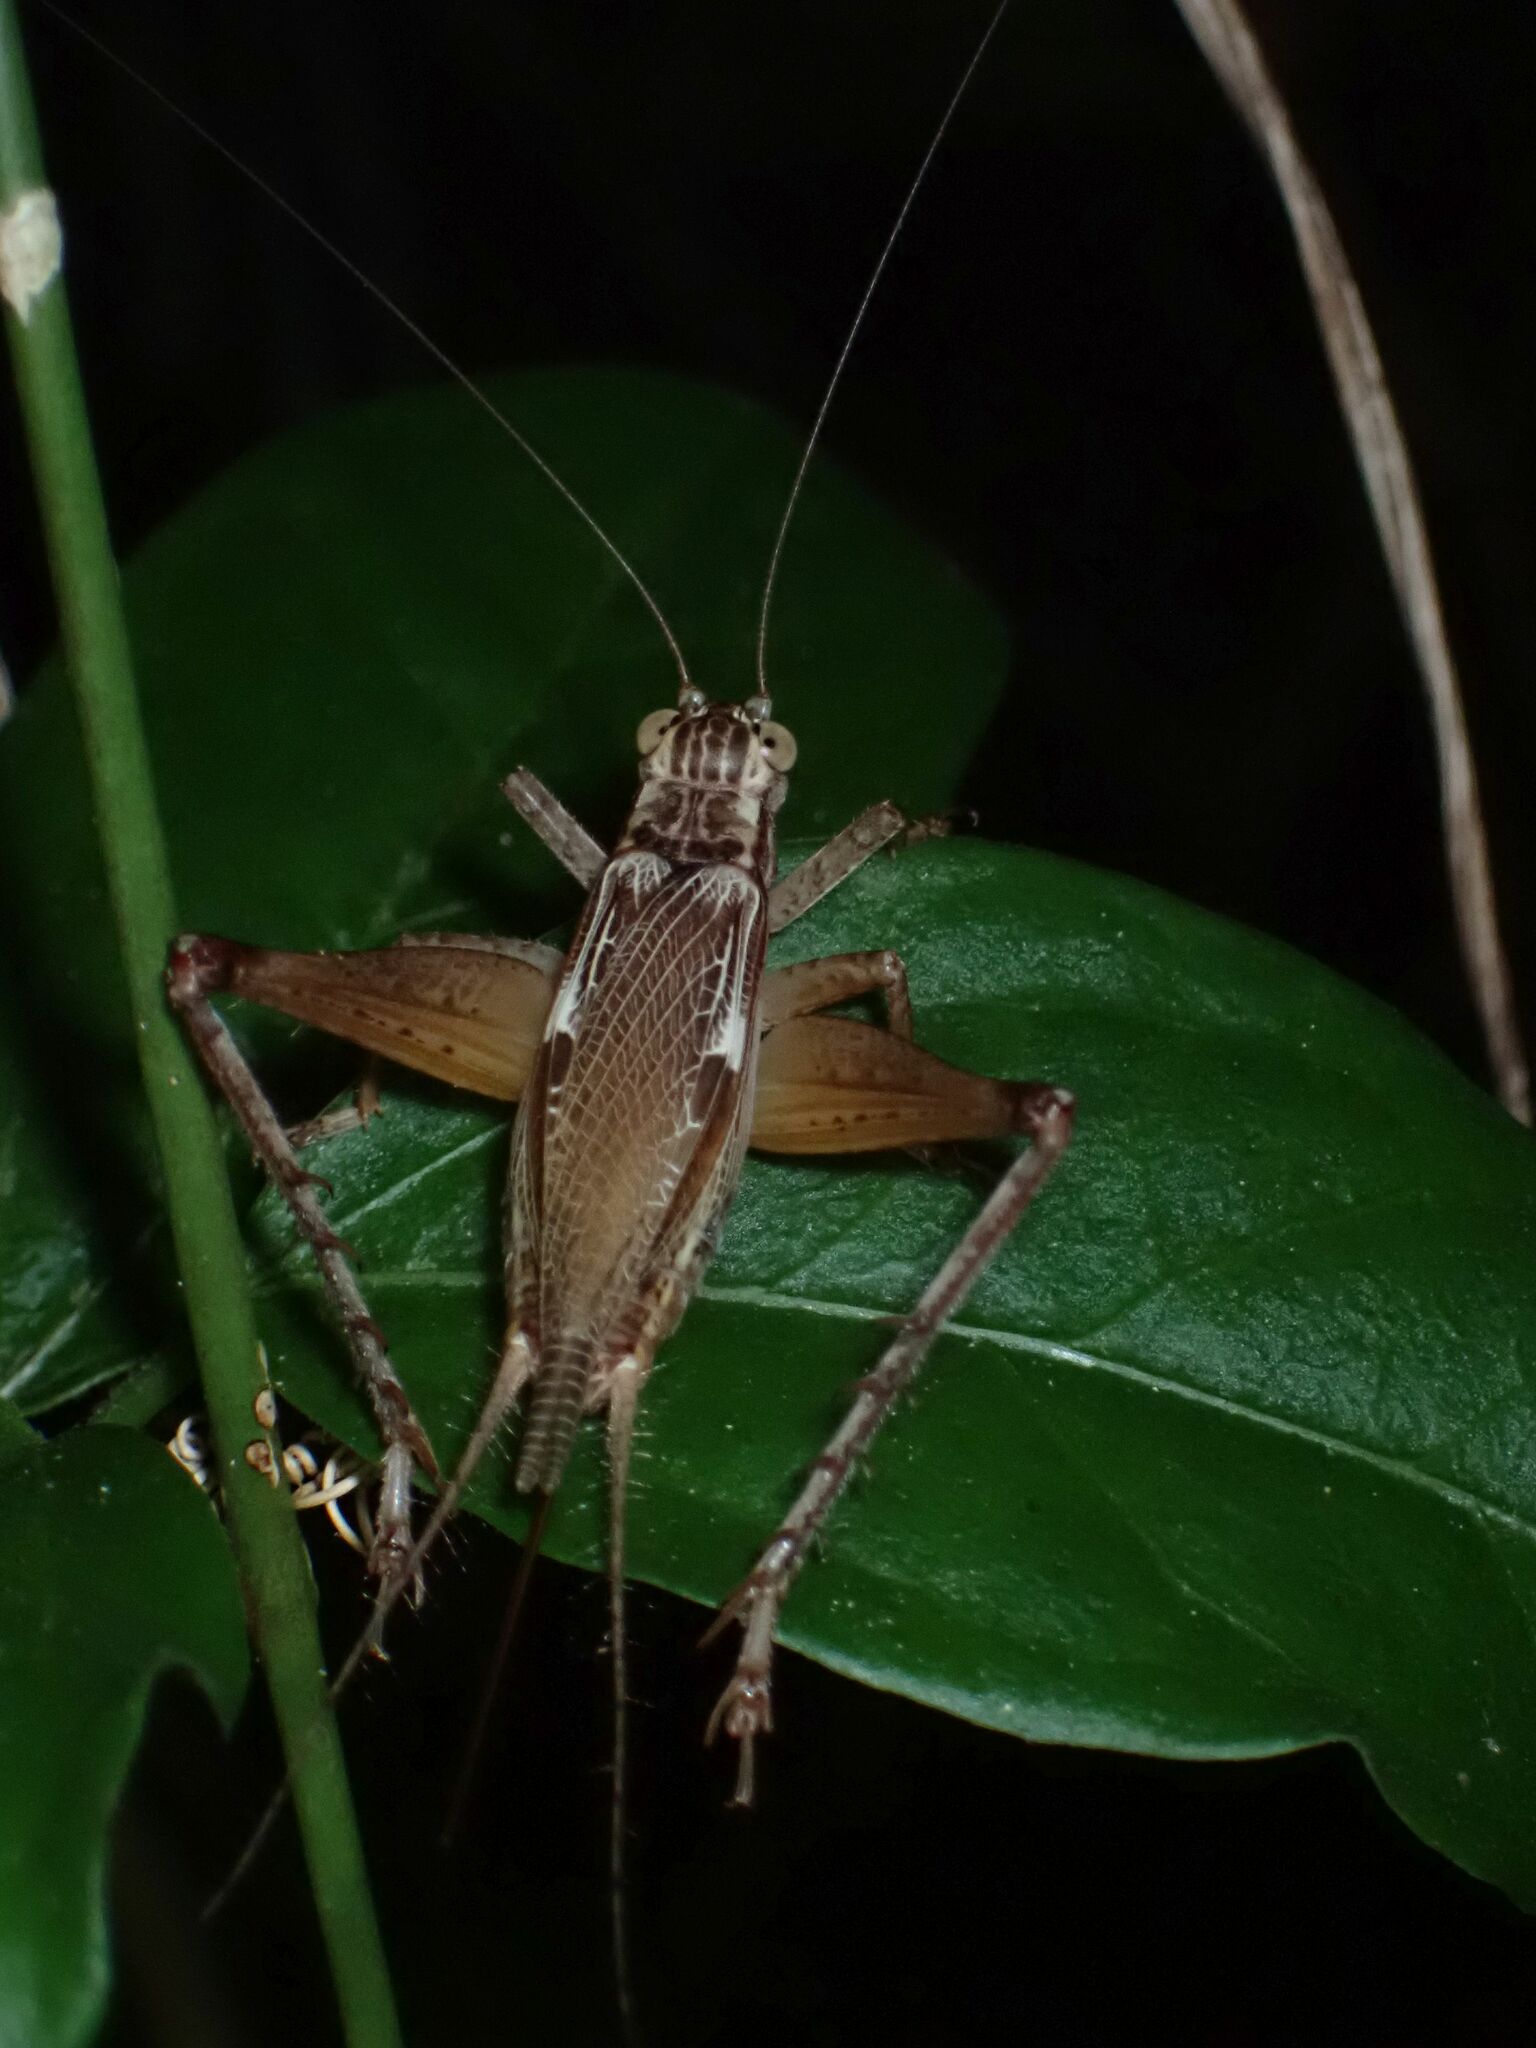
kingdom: Animalia
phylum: Arthropoda
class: Insecta
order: Orthoptera
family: Gryllidae
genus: Cardiodactylus
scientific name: Cardiodactylus novaeguineae
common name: Sad cricket
